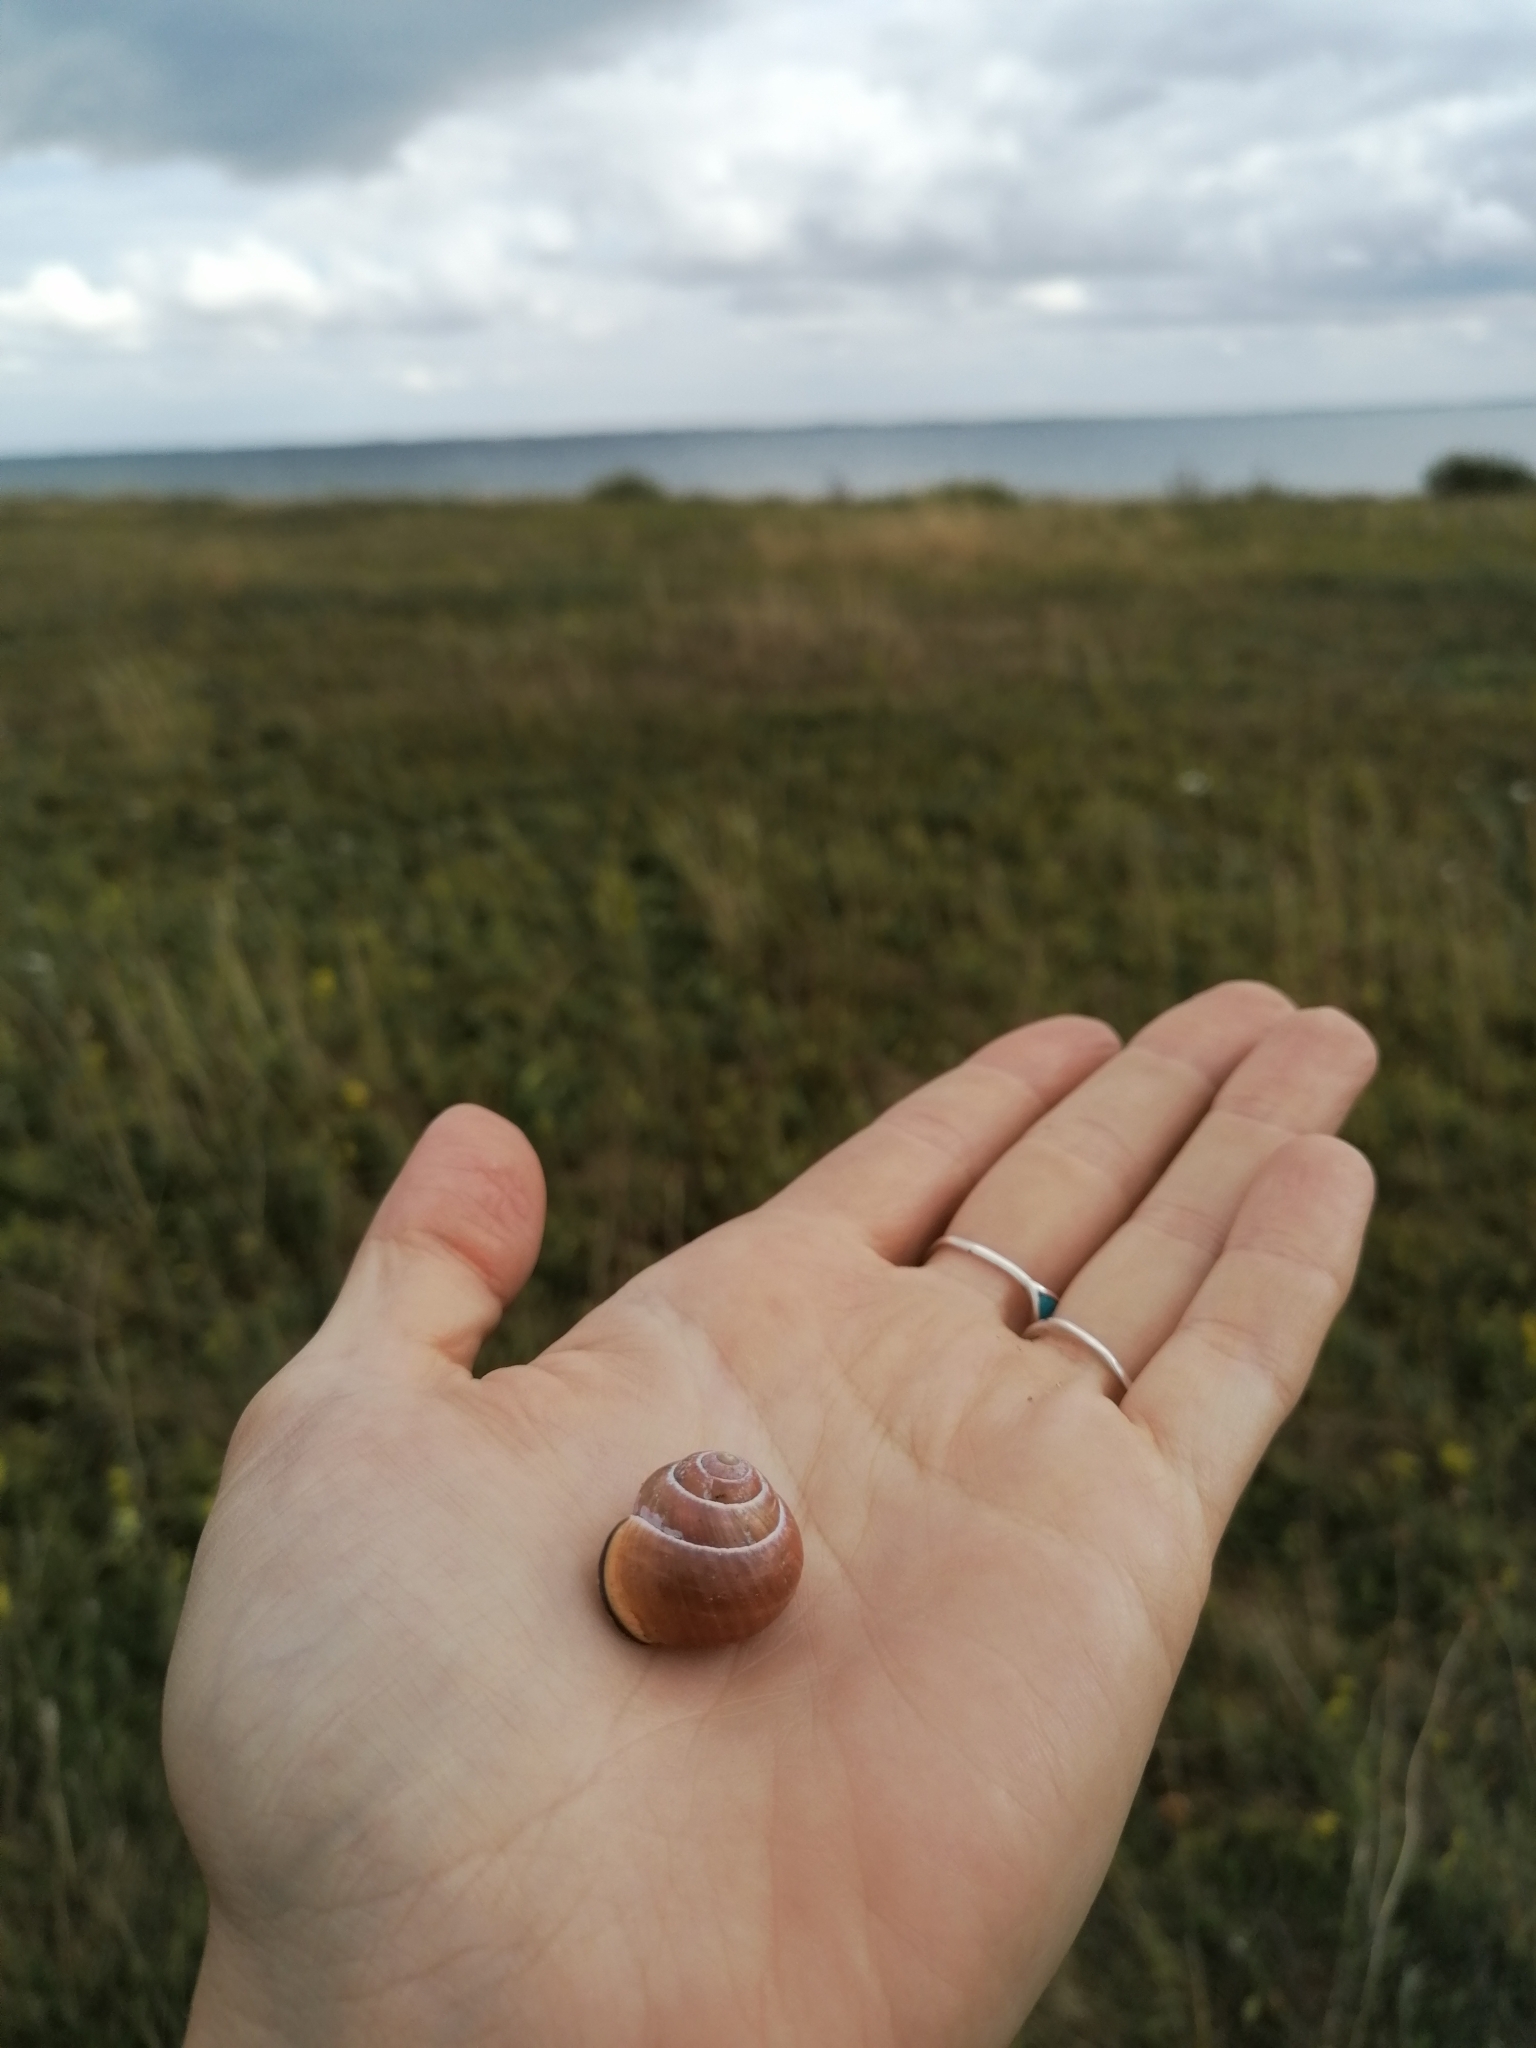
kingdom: Animalia
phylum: Mollusca
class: Gastropoda
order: Stylommatophora
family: Helicidae
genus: Cepaea
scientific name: Cepaea nemoralis
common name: Grovesnail
